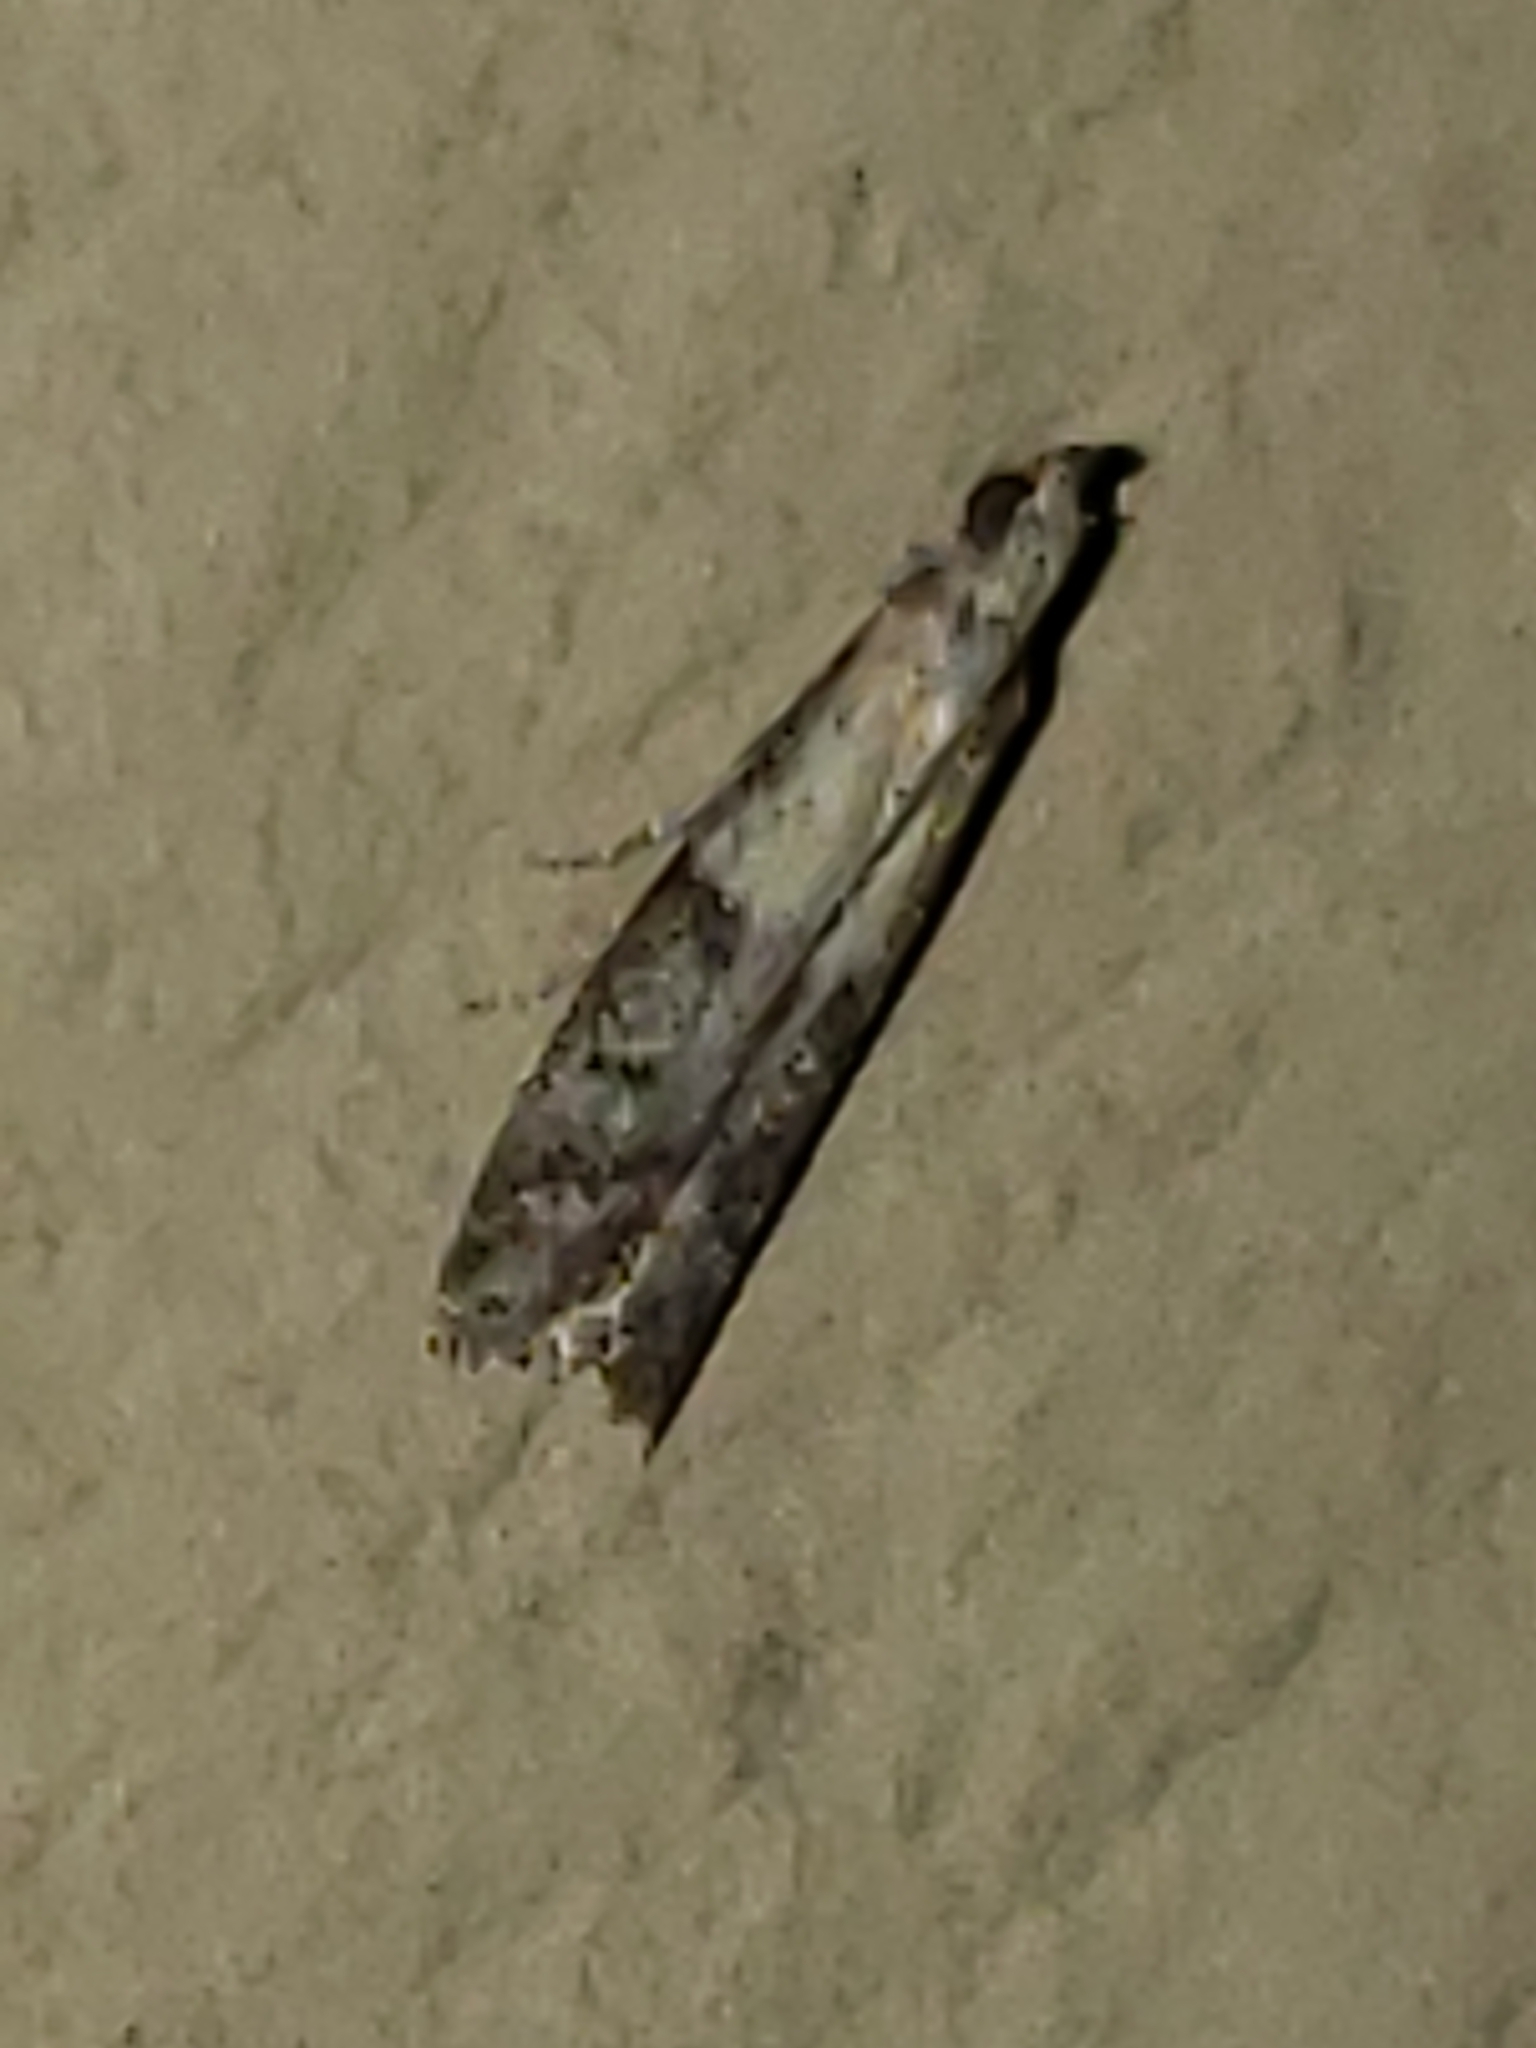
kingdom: Animalia
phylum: Arthropoda
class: Insecta
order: Lepidoptera
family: Pyralidae
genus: Ephestiodes
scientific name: Ephestiodes infimella
